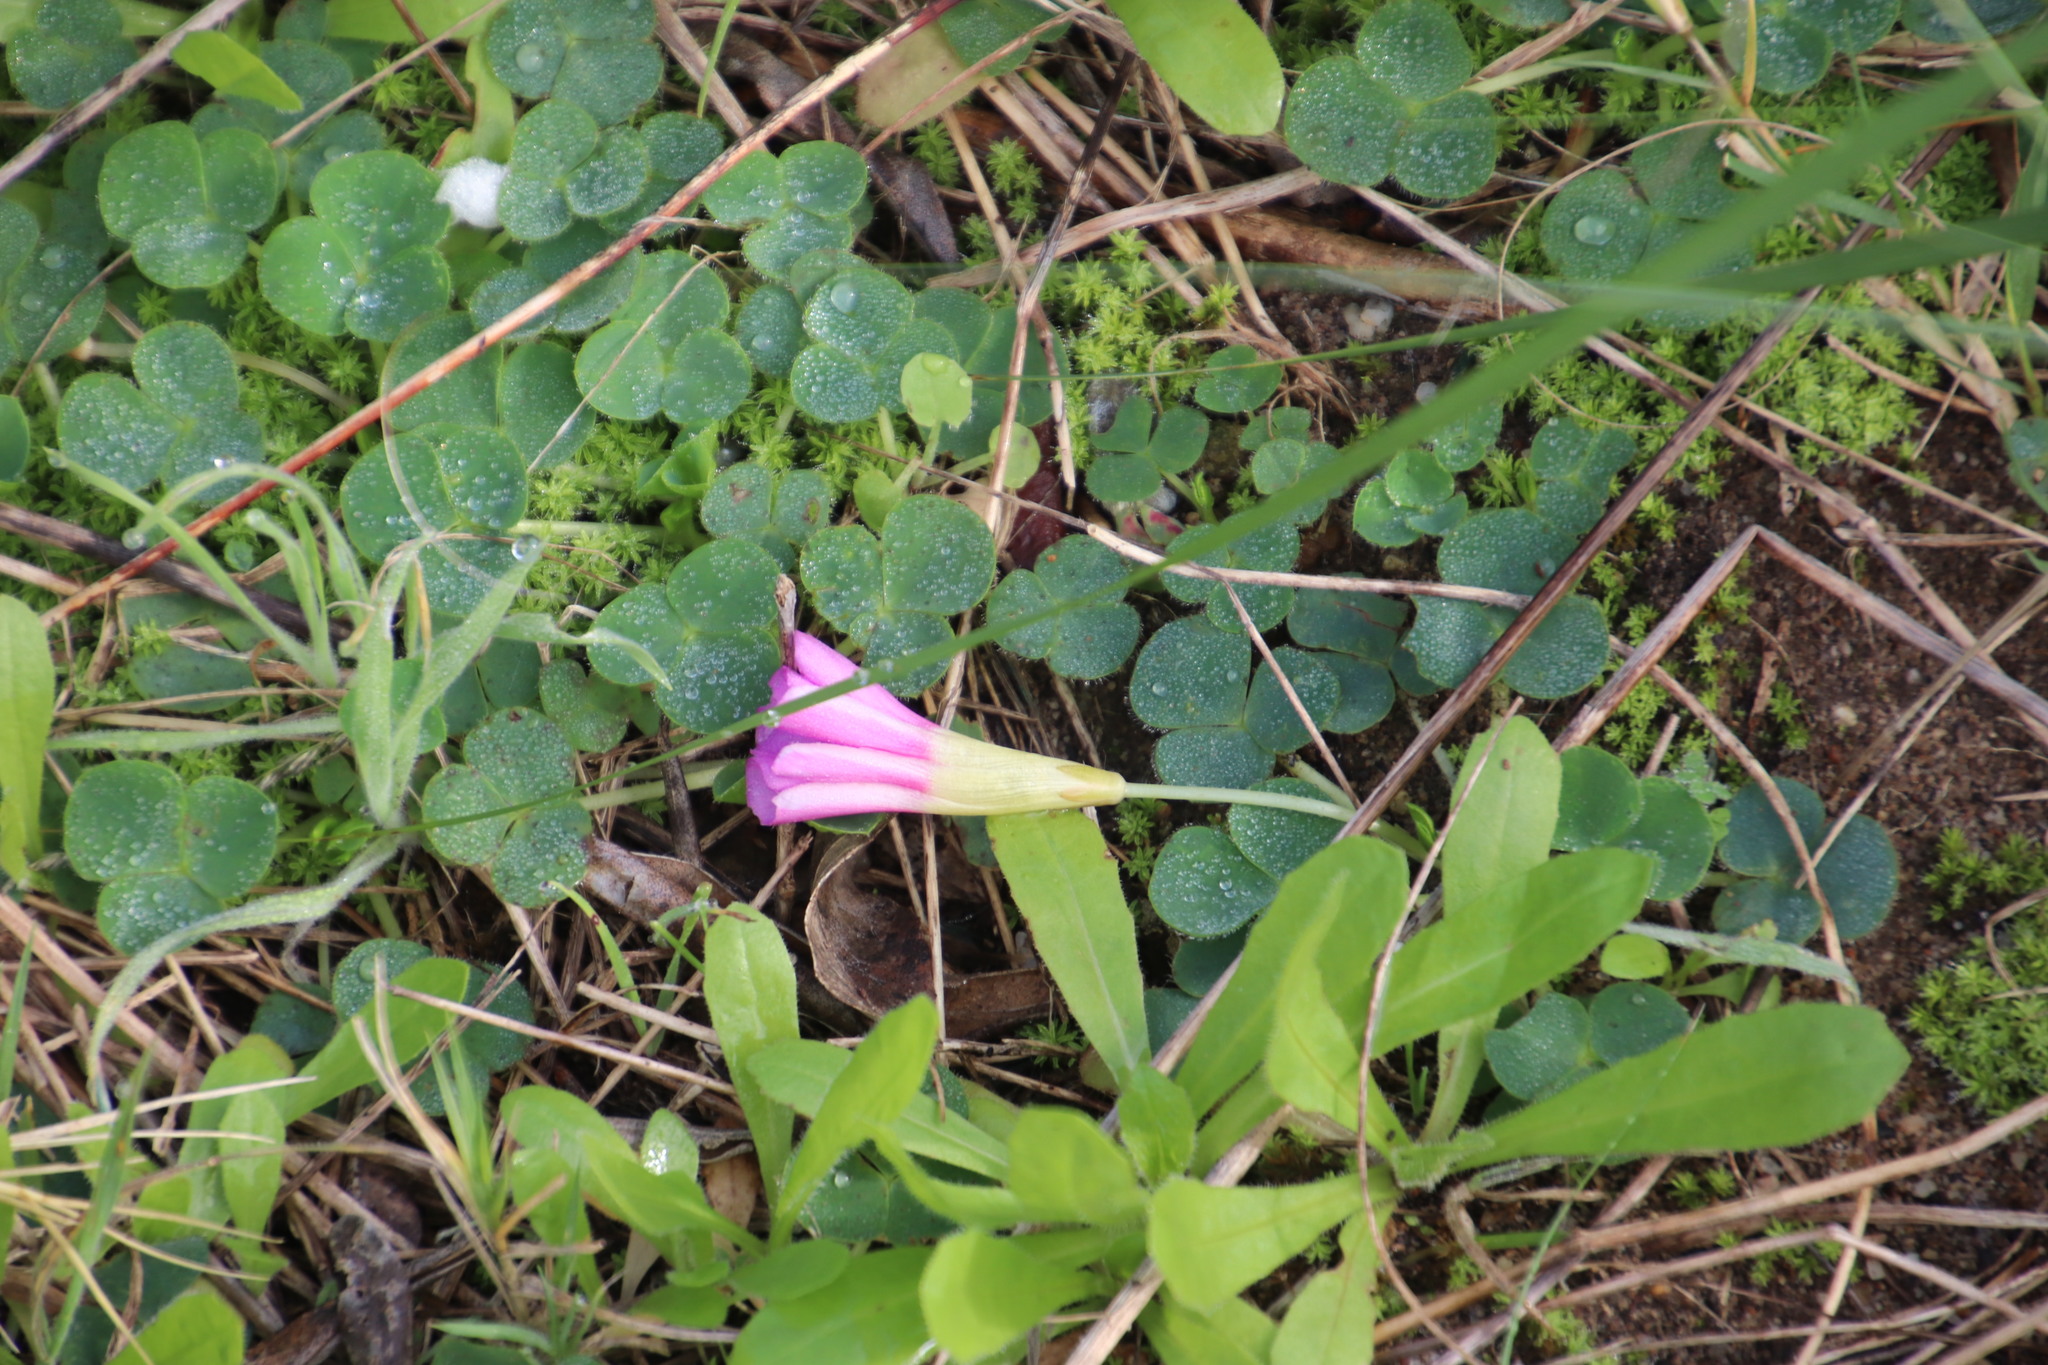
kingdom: Plantae
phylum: Tracheophyta
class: Magnoliopsida
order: Oxalidales
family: Oxalidaceae
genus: Oxalis
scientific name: Oxalis purpurea
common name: Purple woodsorrel
